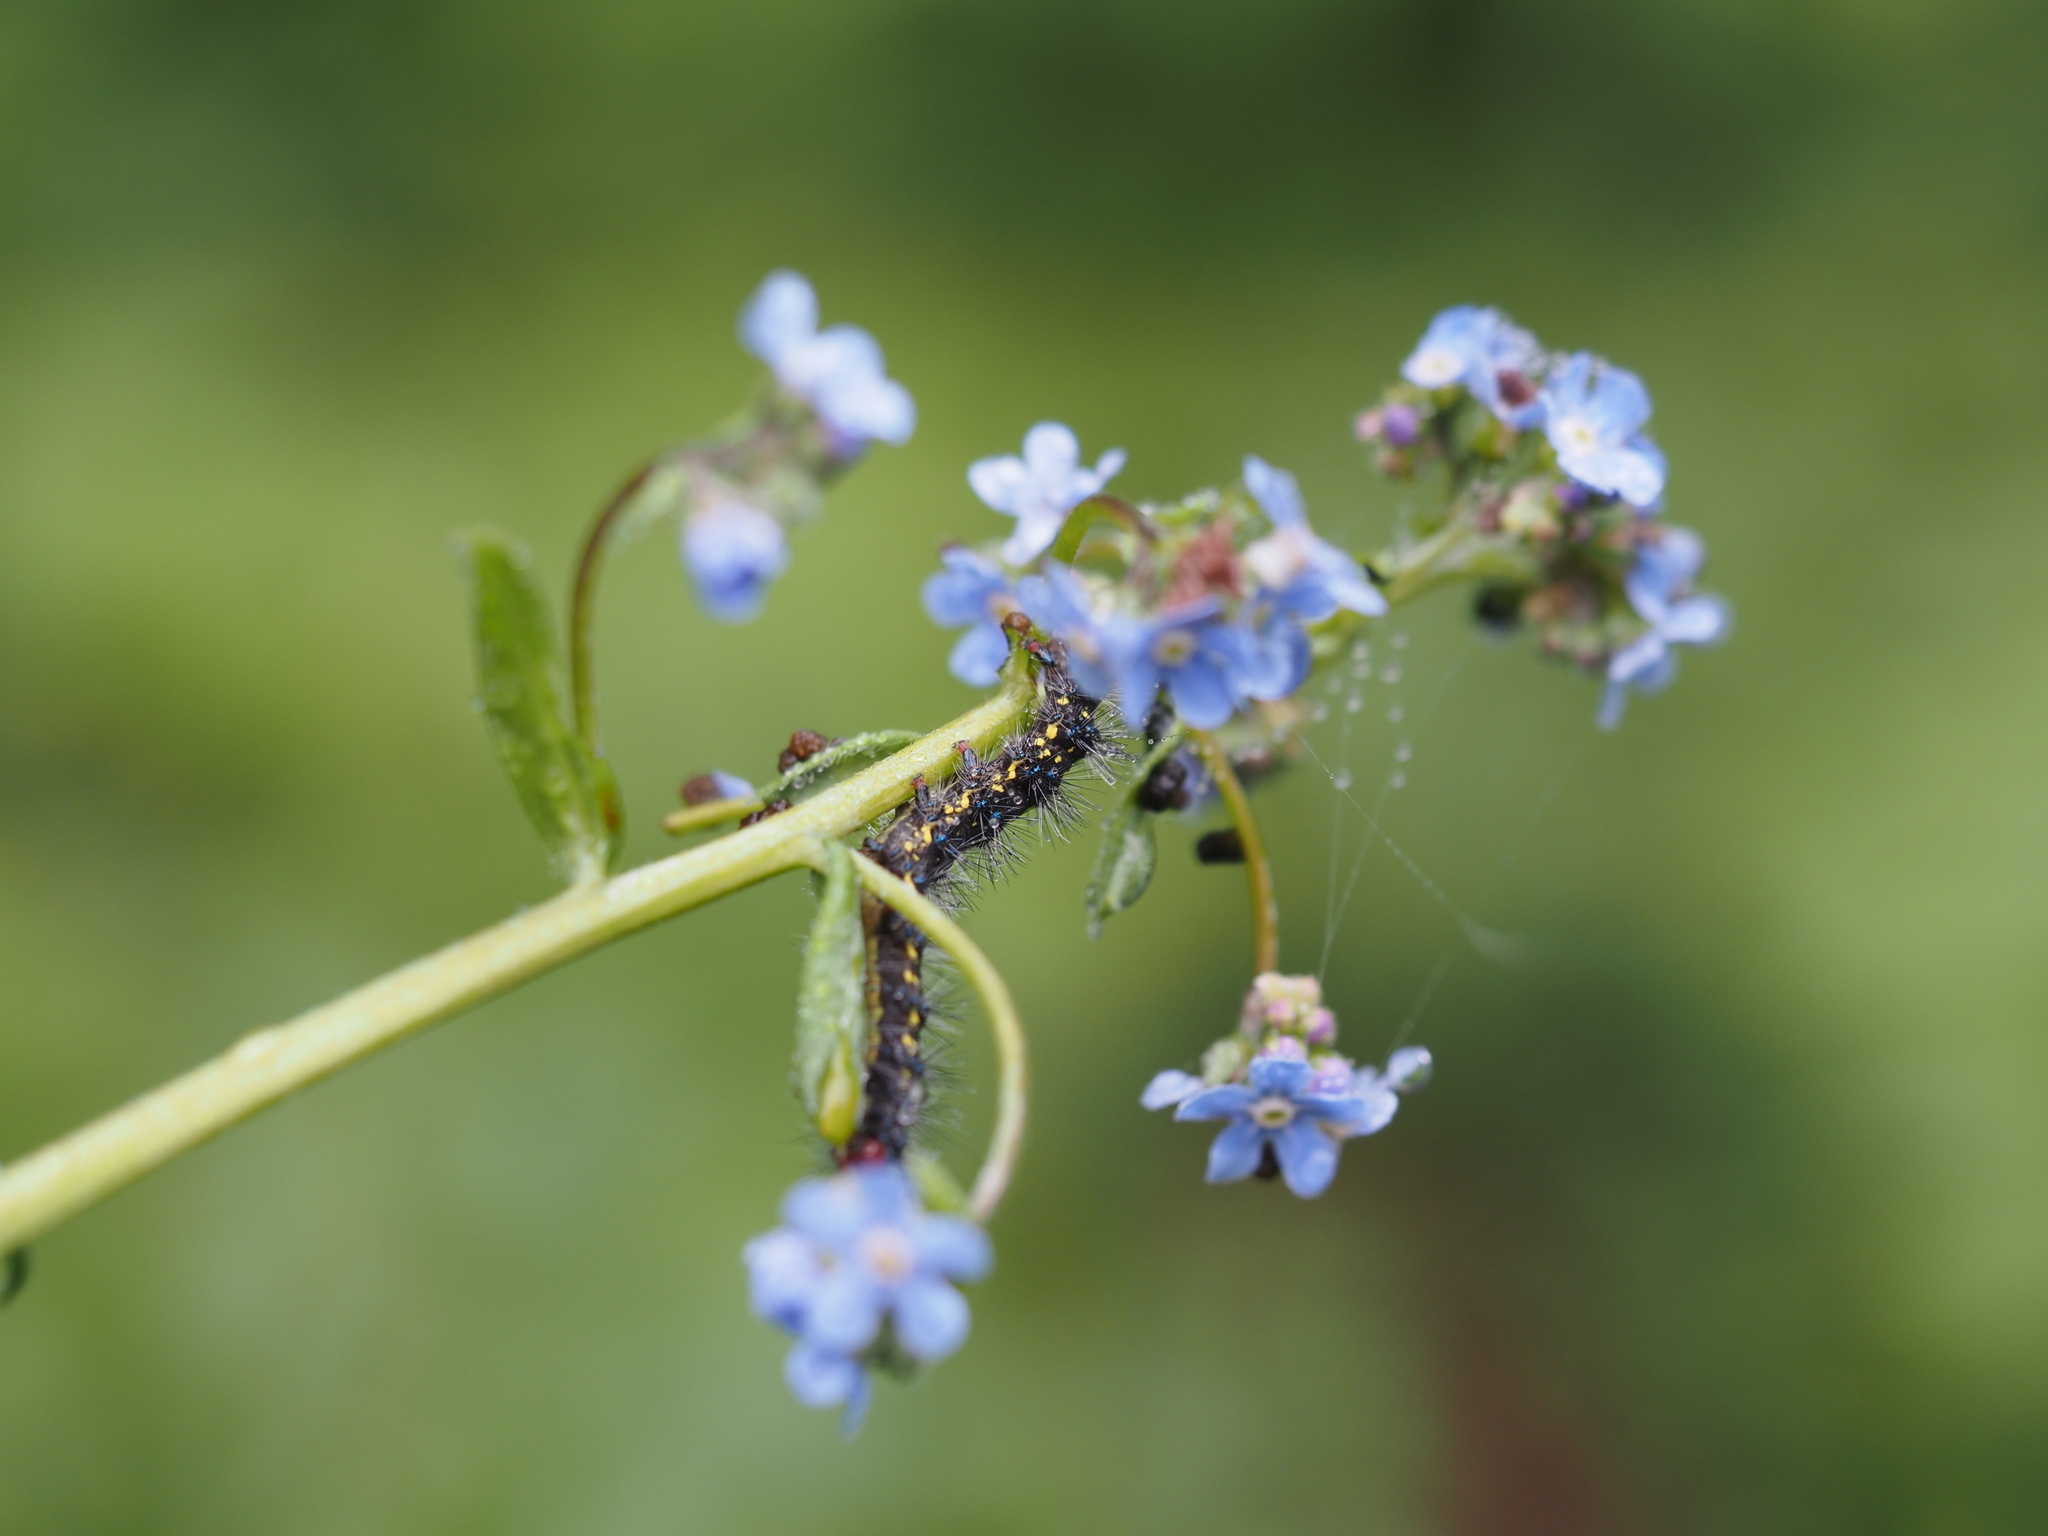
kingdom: Animalia
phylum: Arthropoda
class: Insecta
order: Lepidoptera
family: Erebidae
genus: Gnophaela
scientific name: Gnophaela vermiculata
